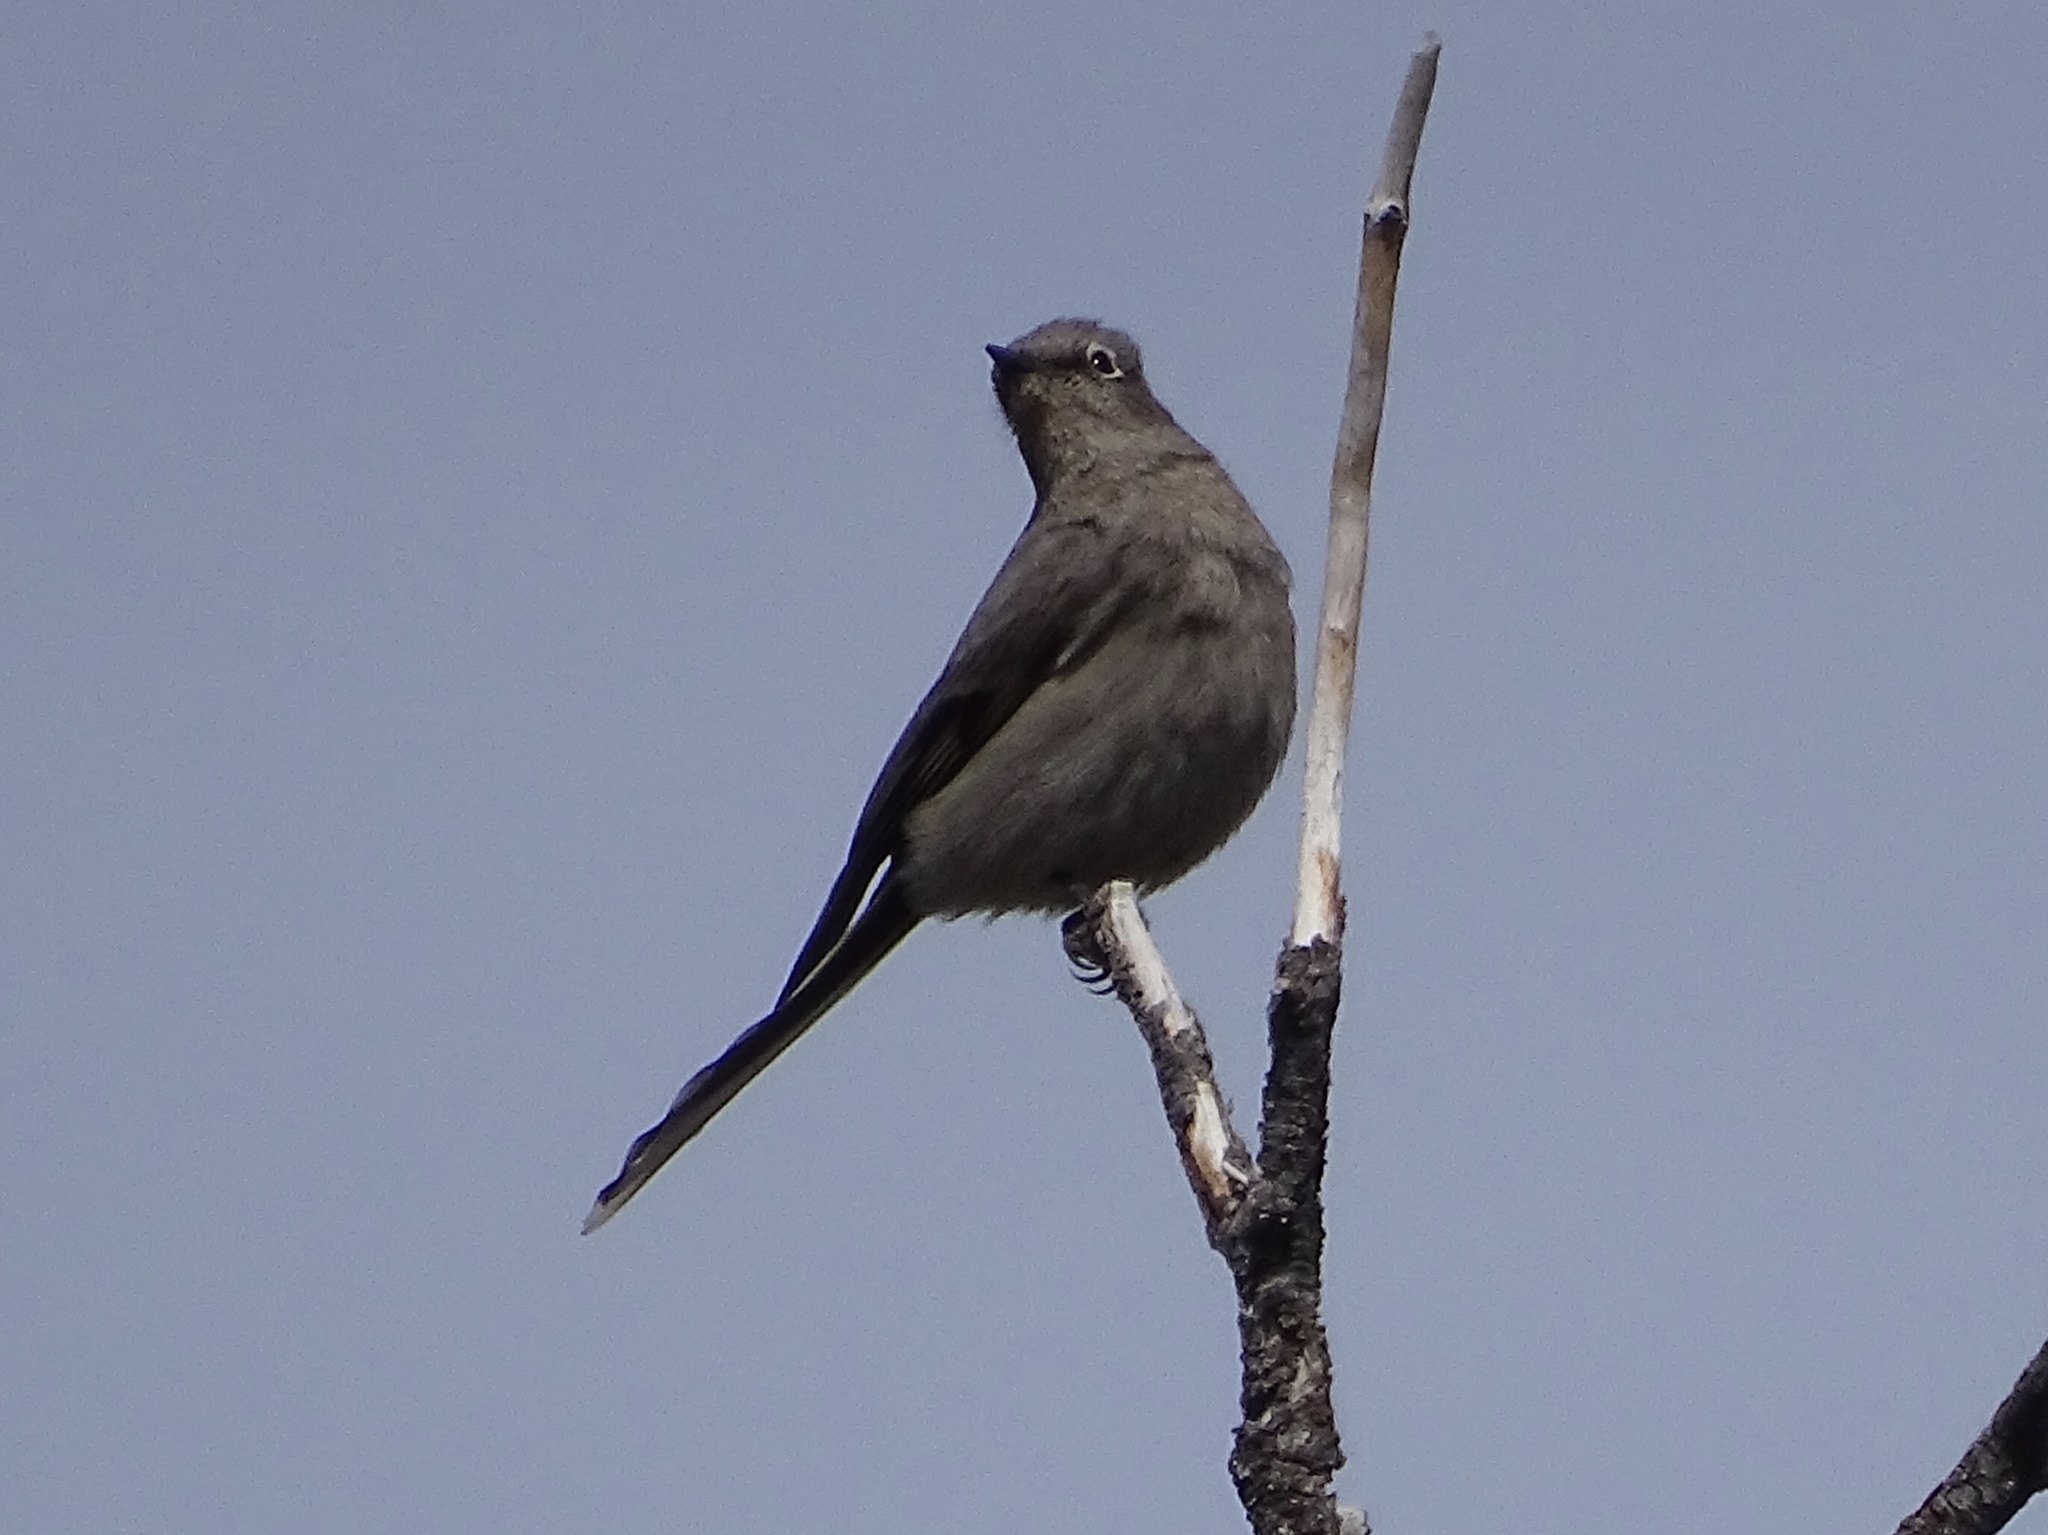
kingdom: Animalia
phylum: Chordata
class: Aves
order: Passeriformes
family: Turdidae
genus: Myadestes
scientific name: Myadestes townsendi
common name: Townsend's solitaire
